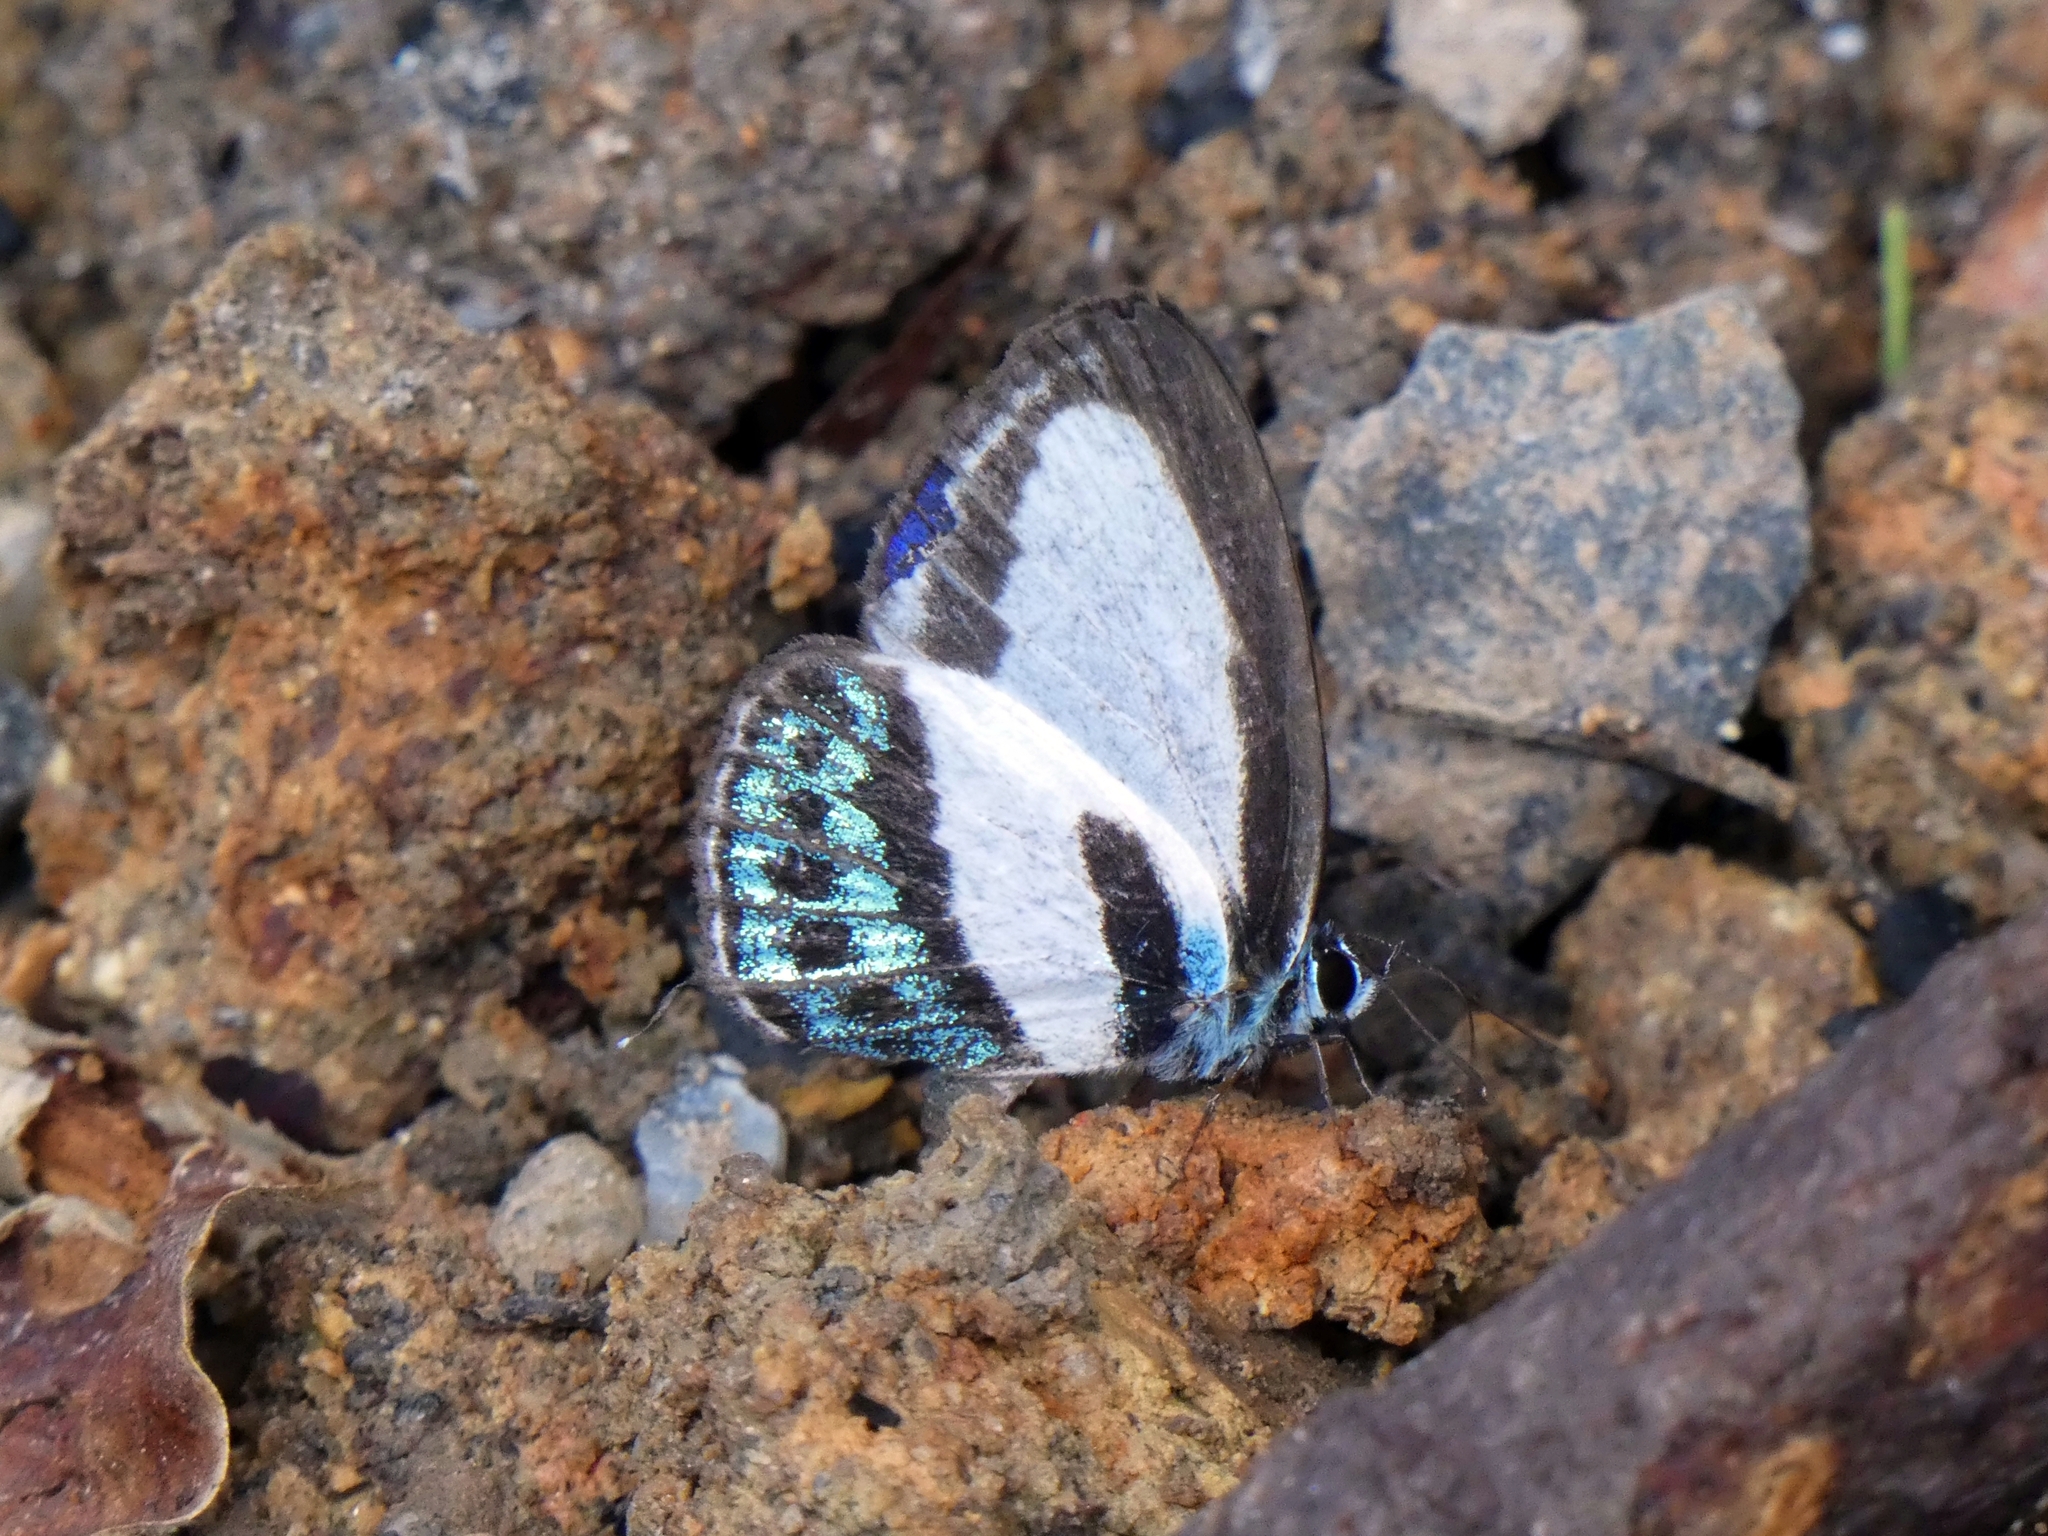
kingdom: Animalia
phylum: Arthropoda
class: Insecta
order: Lepidoptera
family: Lycaenidae
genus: Nacaduba
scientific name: Nacaduba cyanea
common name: Tailed green-banded line blue
